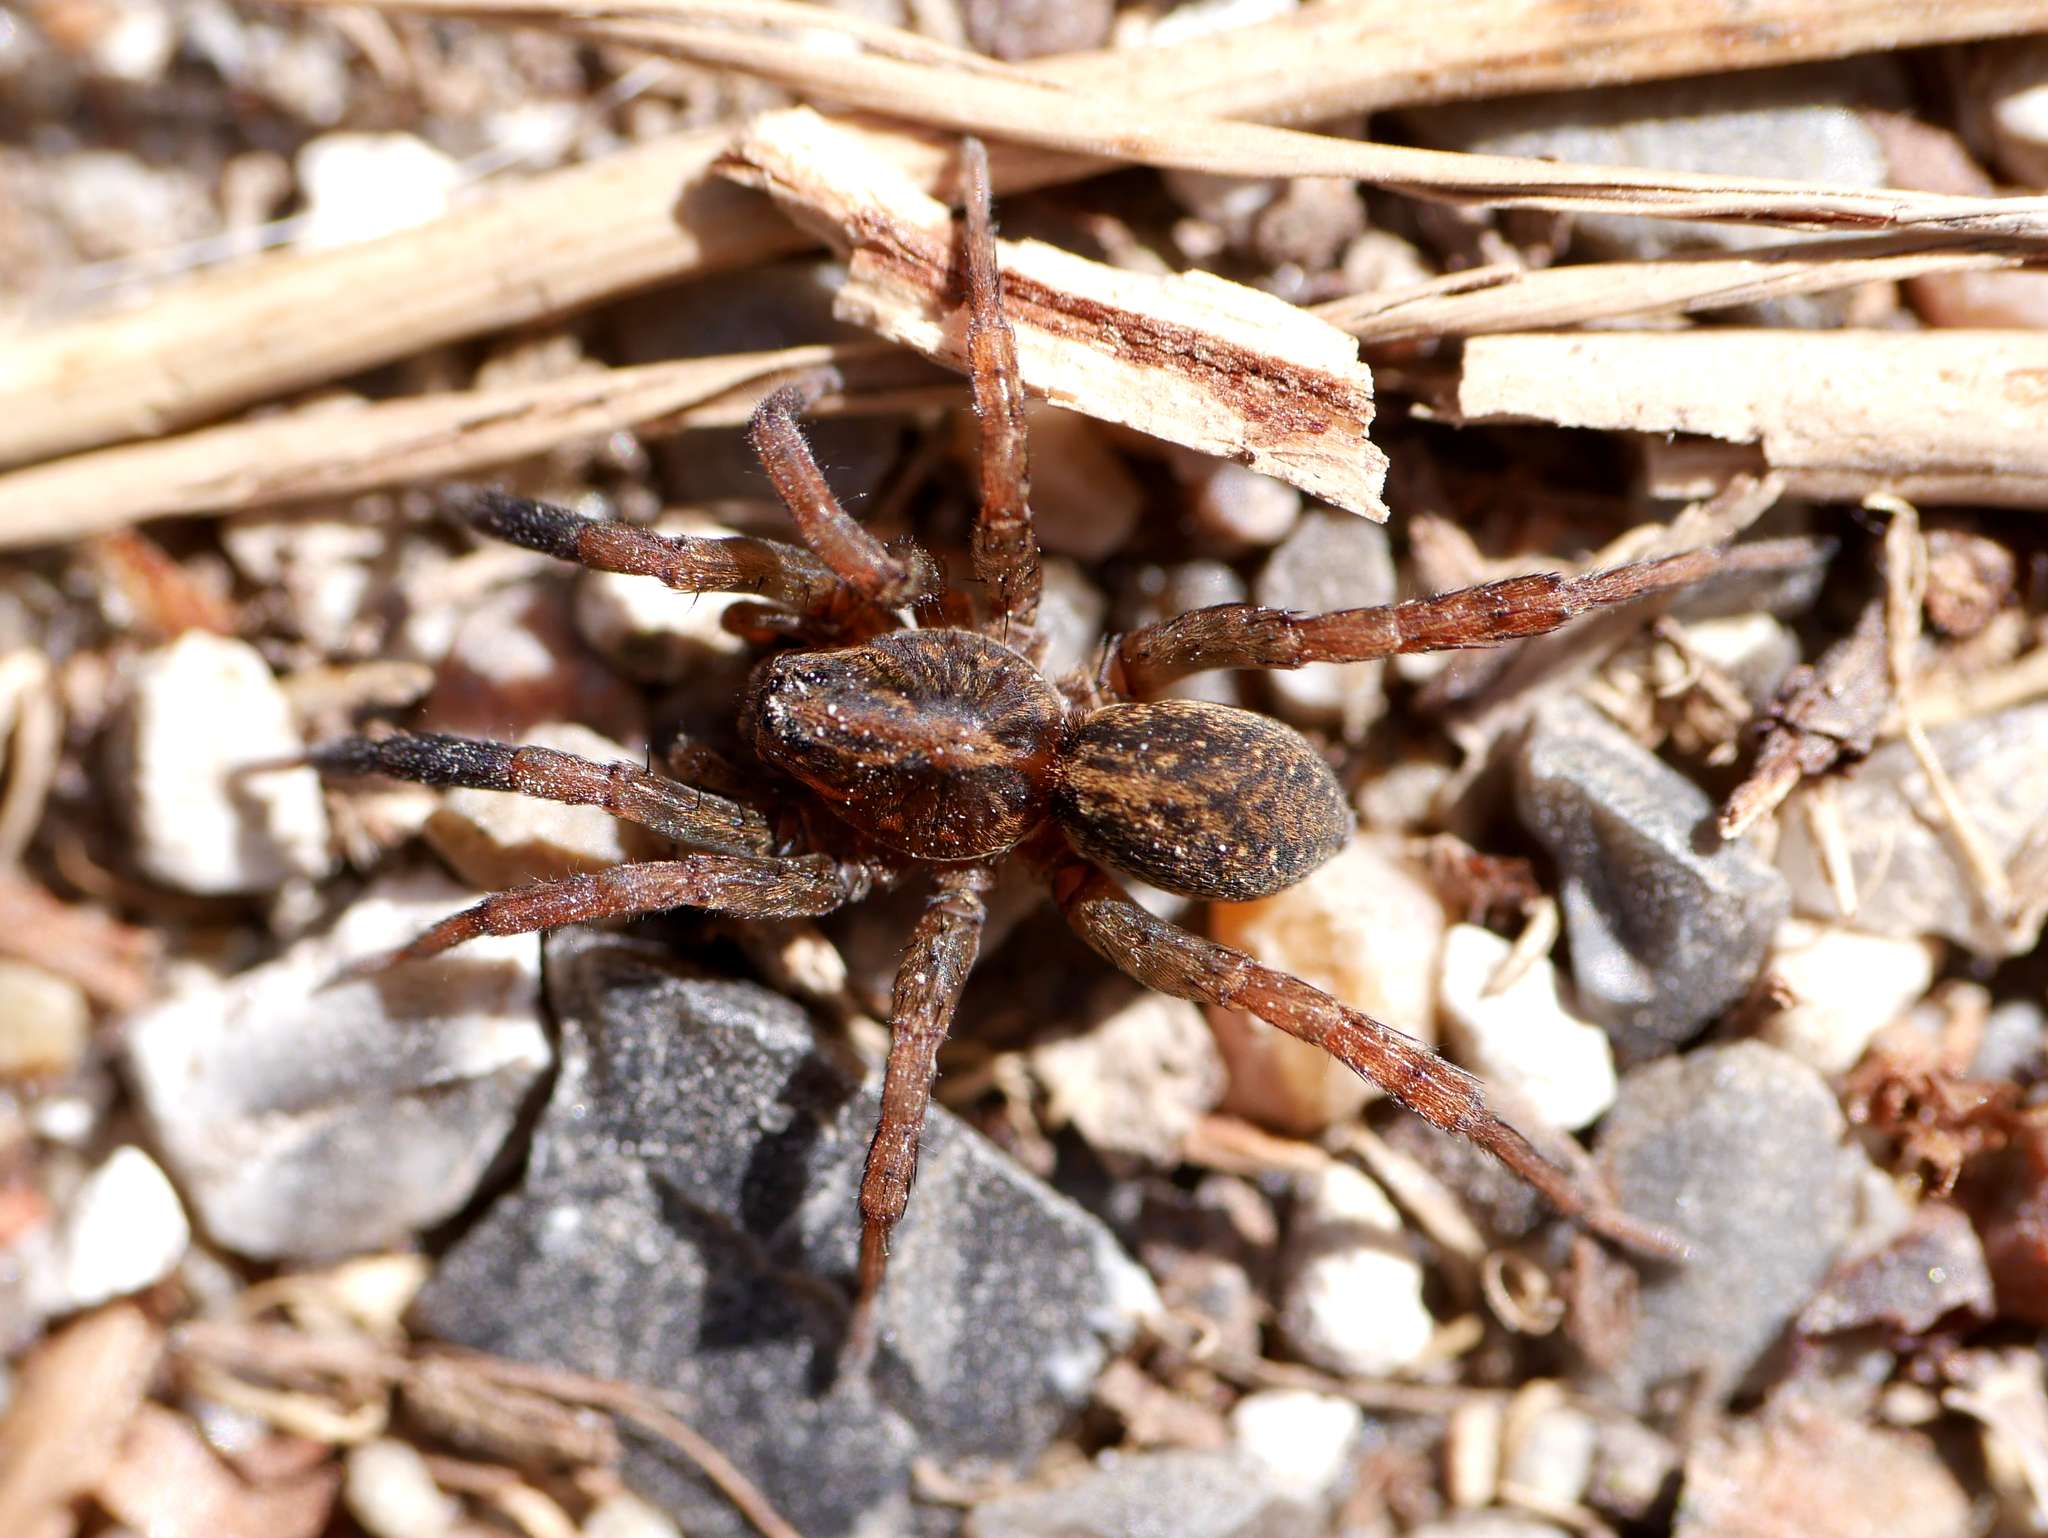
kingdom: Animalia
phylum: Arthropoda
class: Arachnida
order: Araneae
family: Lycosidae
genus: Trochosa
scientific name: Trochosa terricola
